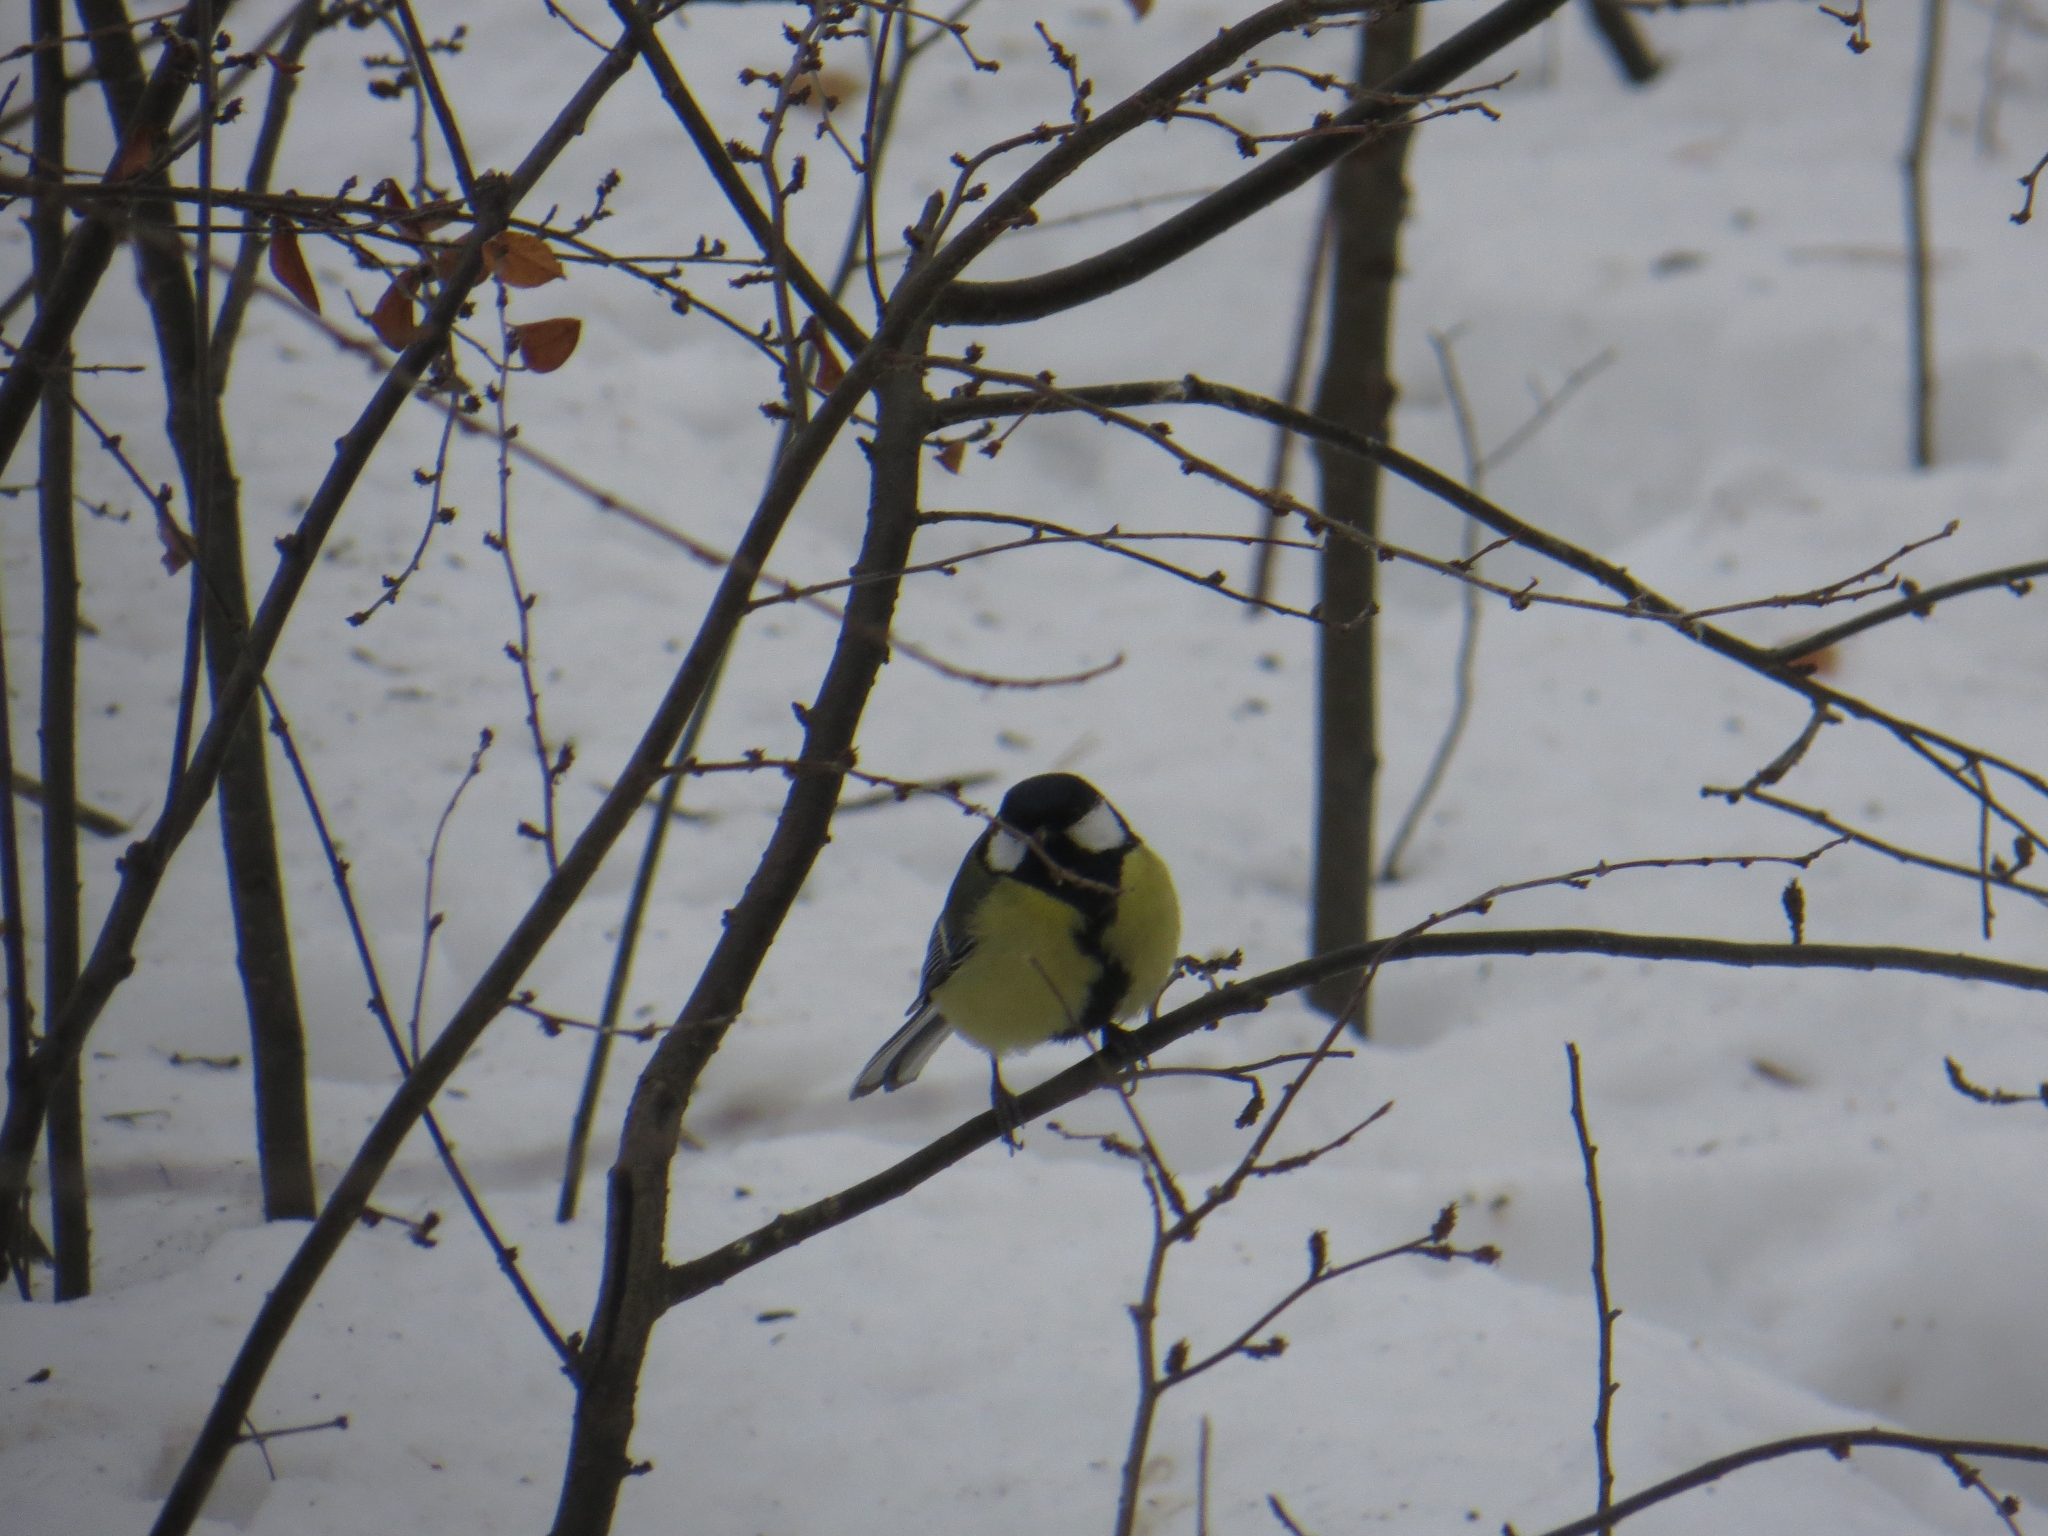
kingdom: Animalia
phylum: Chordata
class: Aves
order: Passeriformes
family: Paridae
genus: Parus
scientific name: Parus major
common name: Great tit
